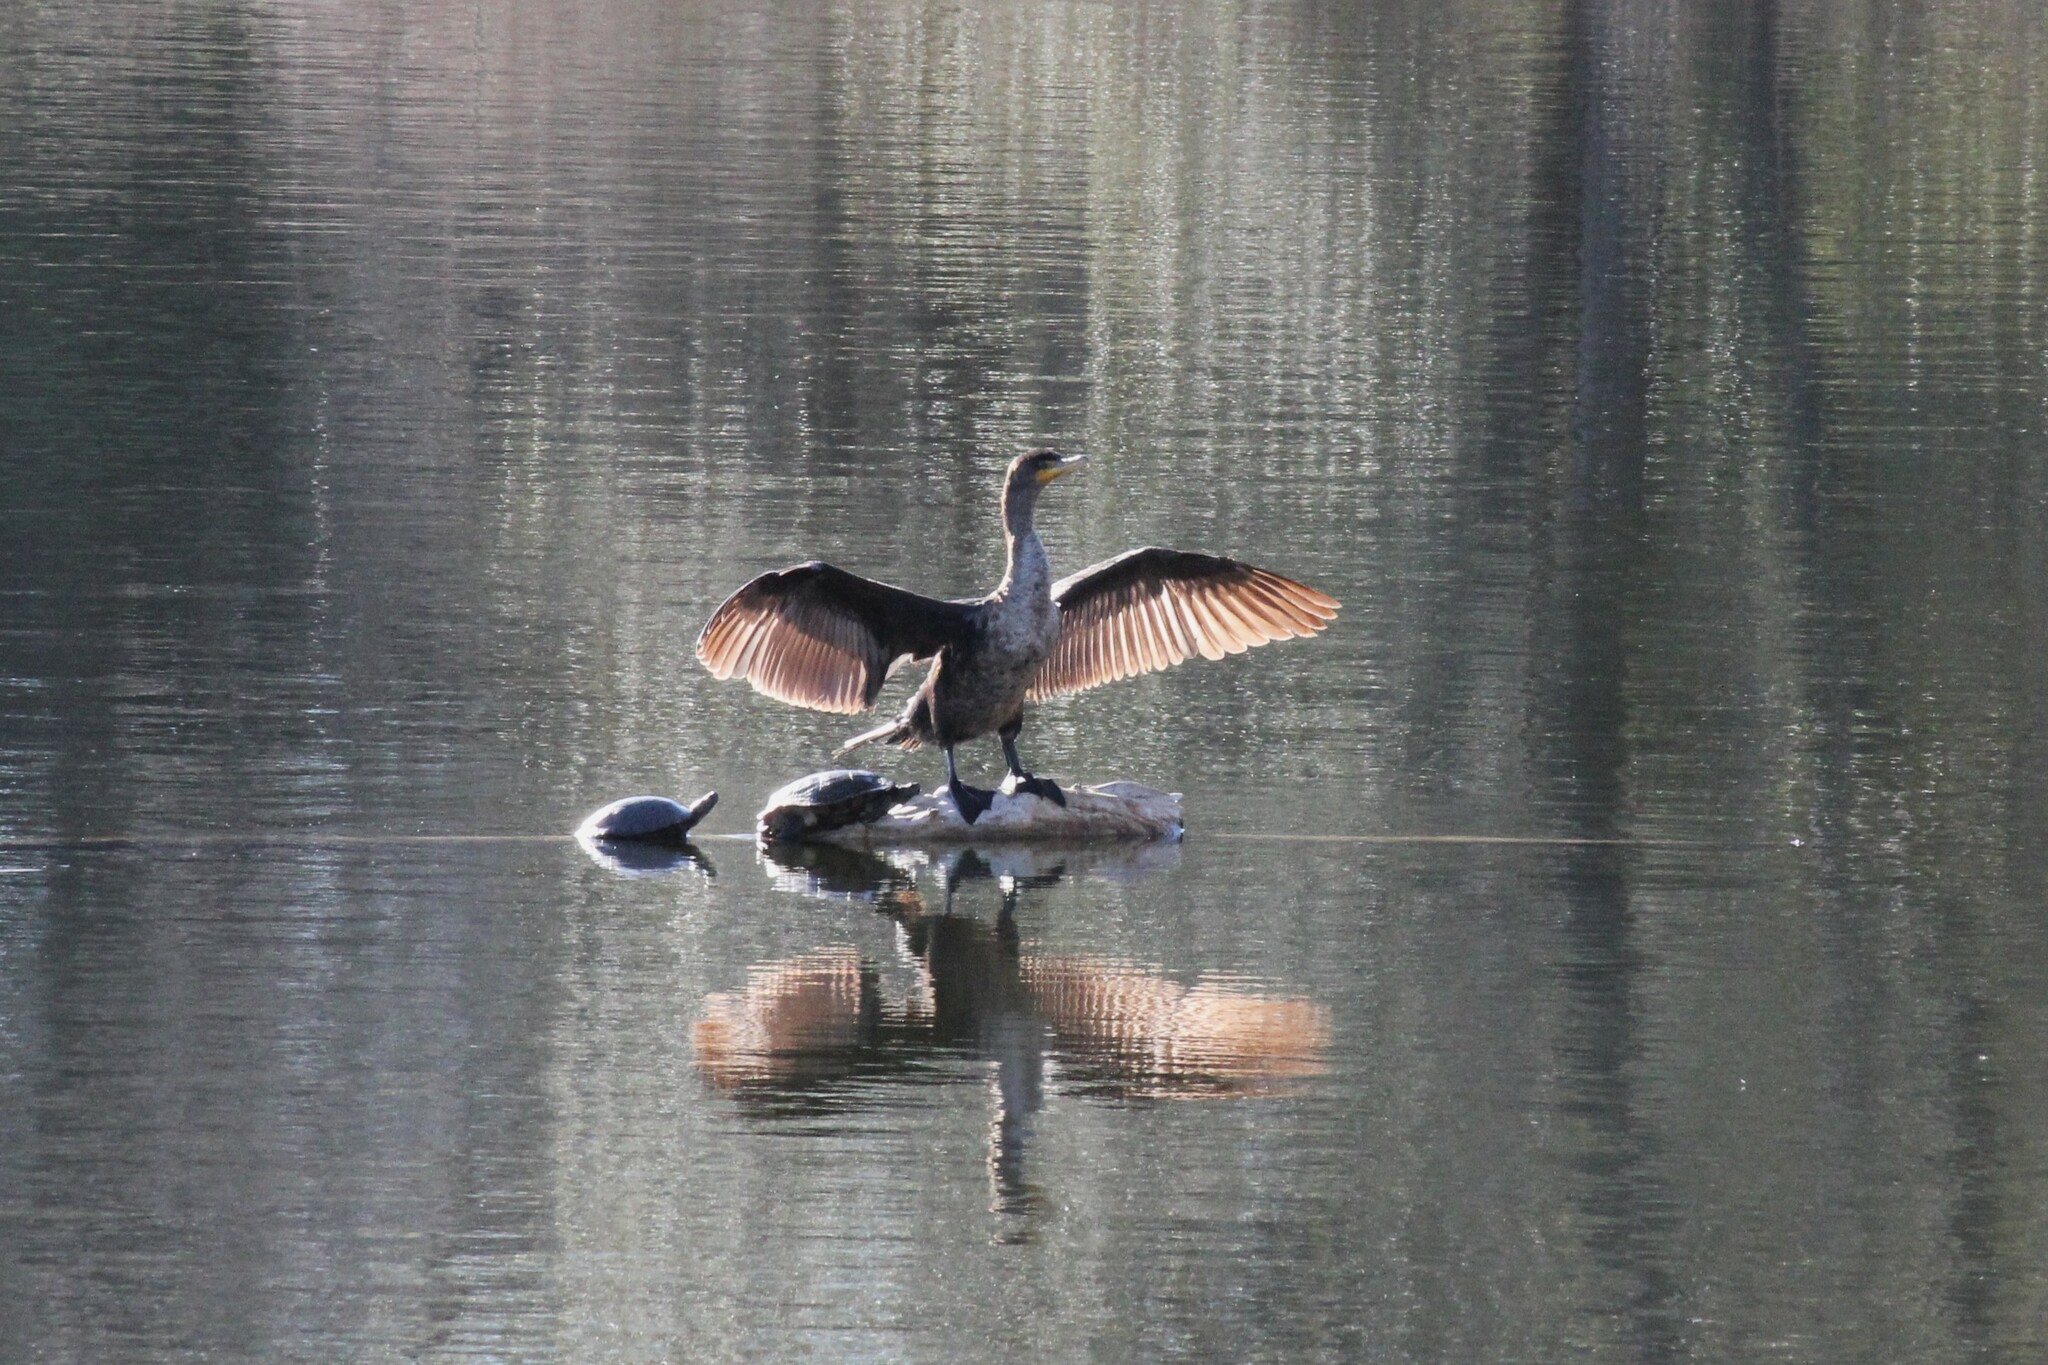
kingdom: Animalia
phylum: Chordata
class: Aves
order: Suliformes
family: Phalacrocoracidae
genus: Phalacrocorax
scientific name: Phalacrocorax auritus
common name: Double-crested cormorant
